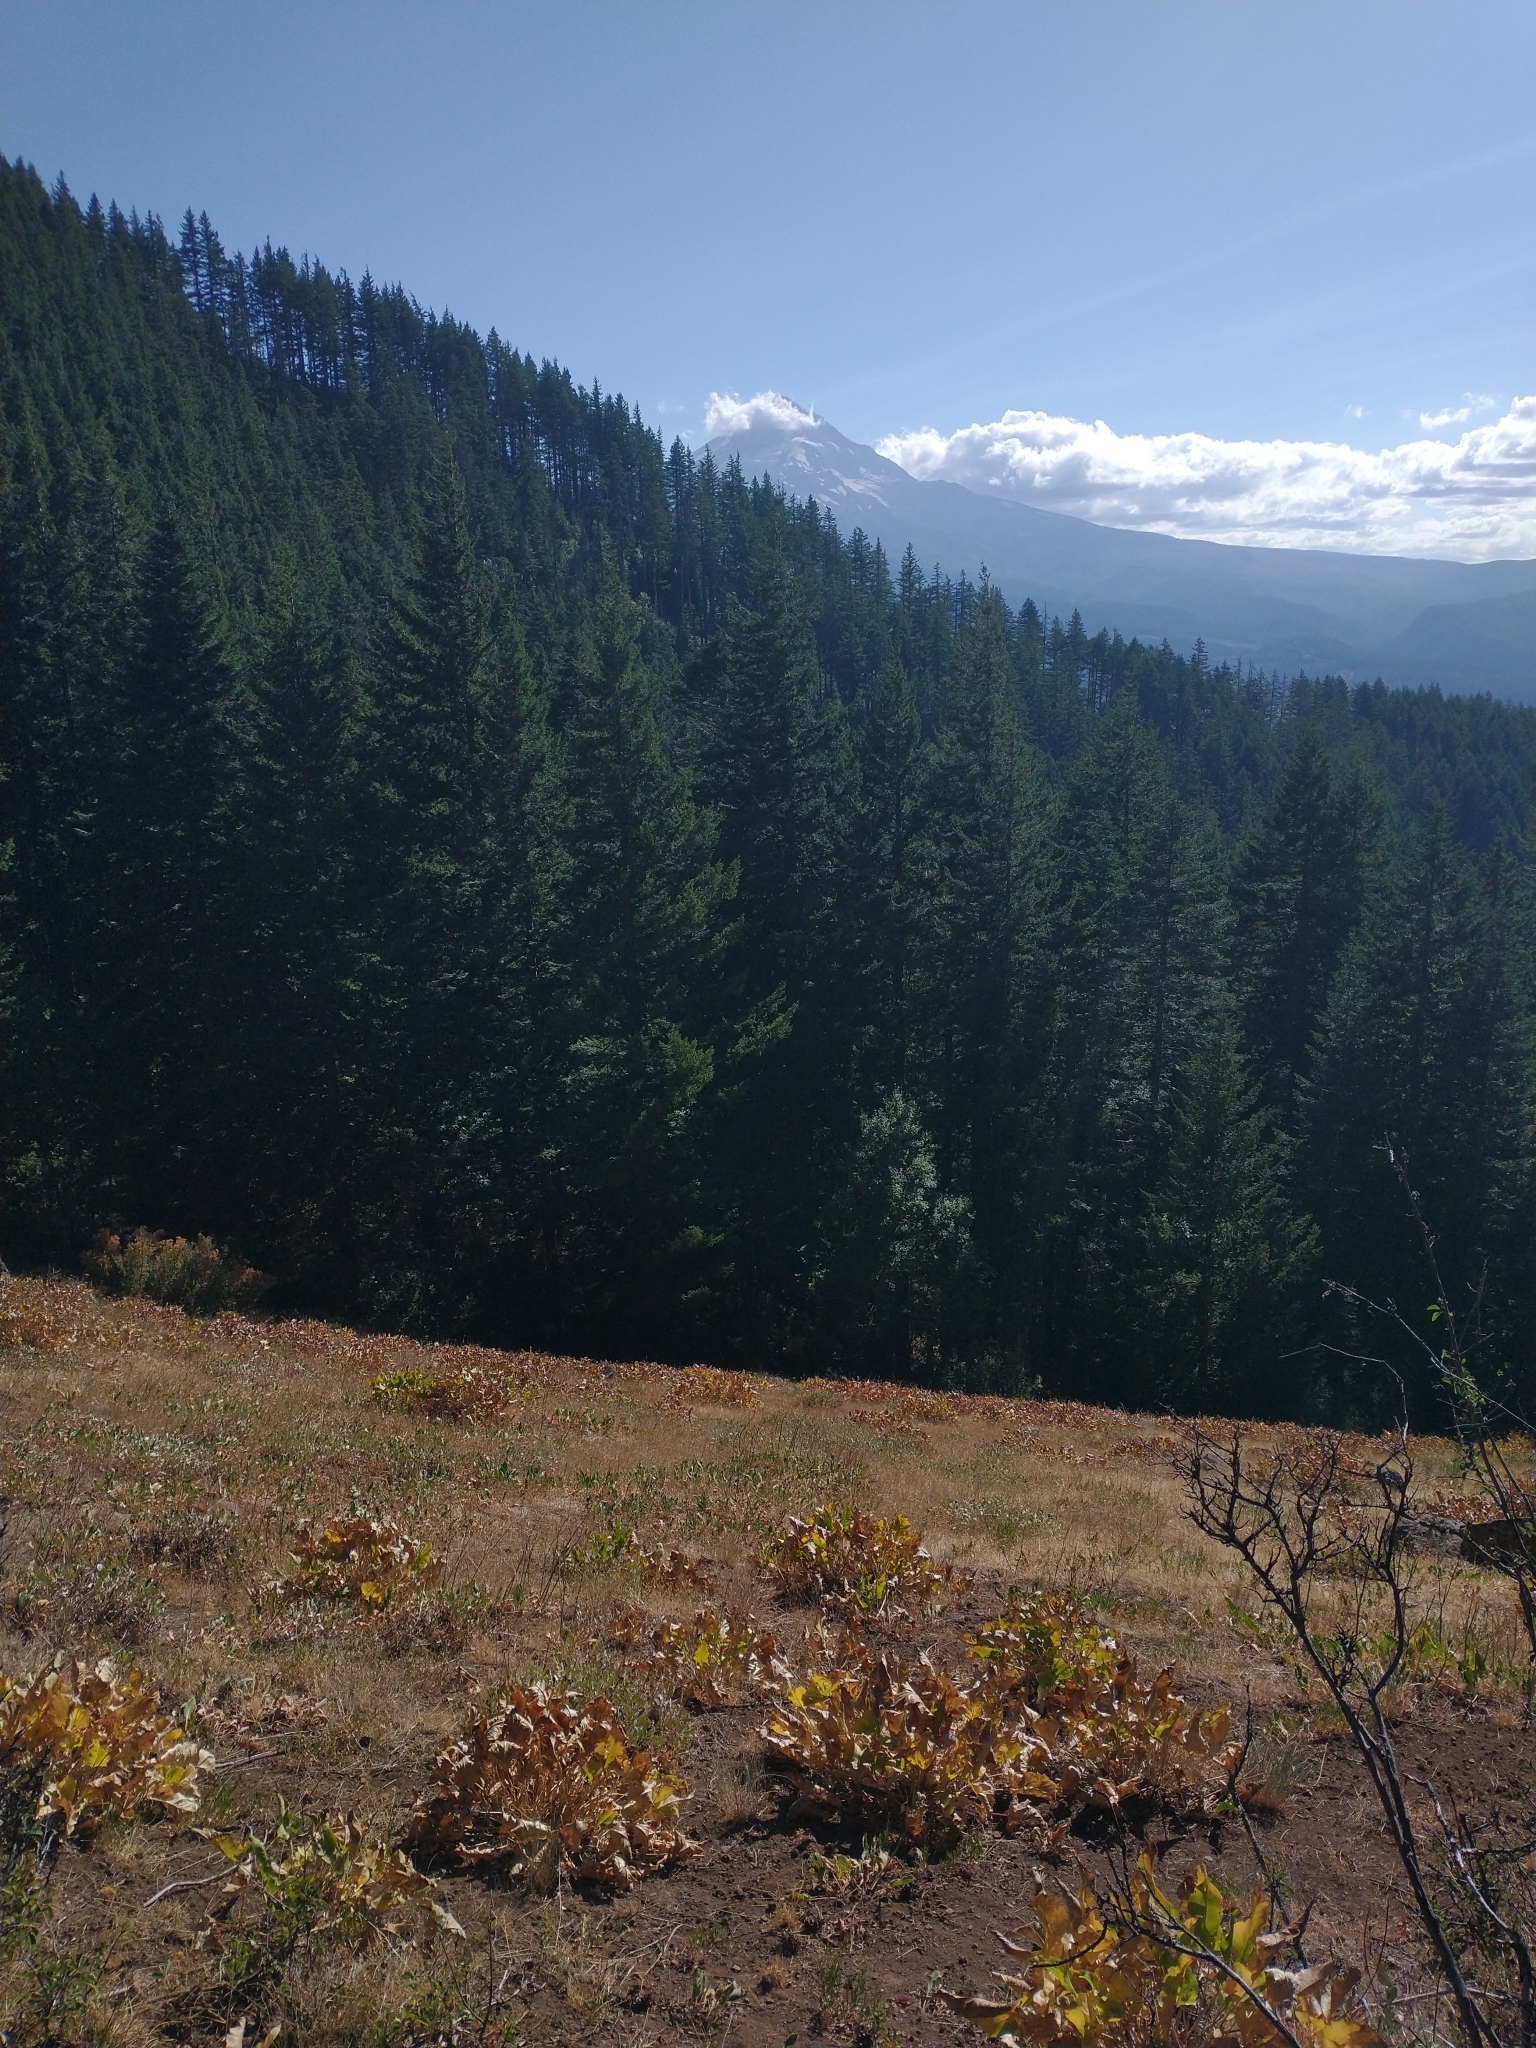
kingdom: Plantae
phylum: Tracheophyta
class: Pinopsida
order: Pinales
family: Pinaceae
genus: Pseudotsuga
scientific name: Pseudotsuga menziesii
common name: Douglas fir
